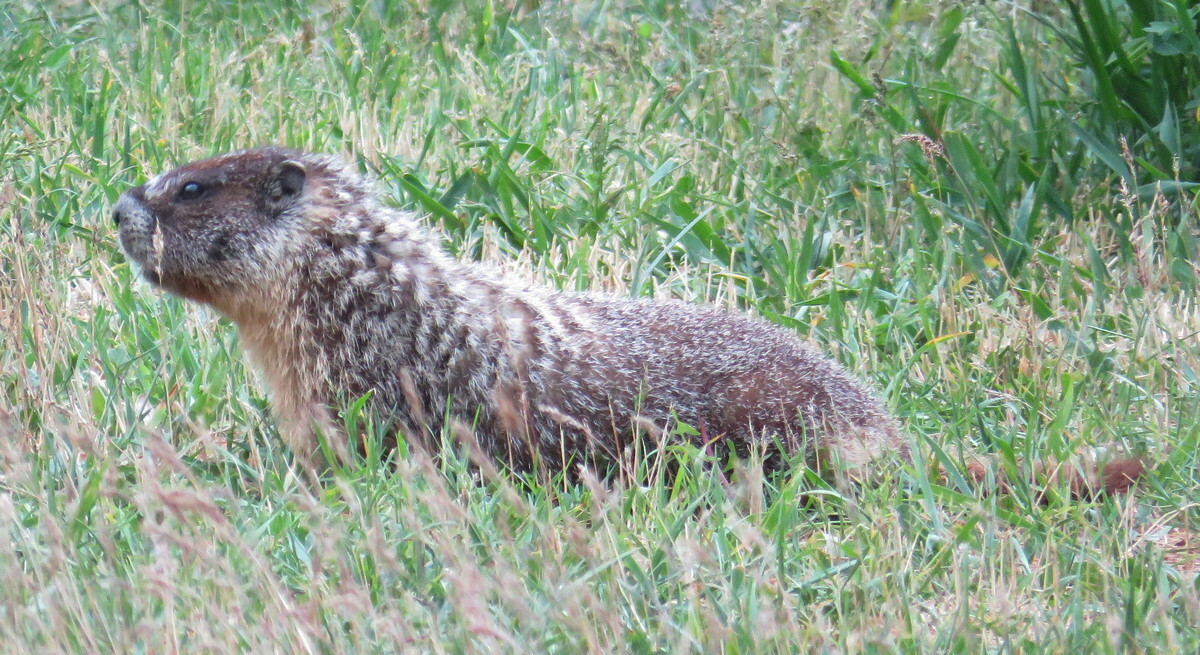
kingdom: Animalia
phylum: Chordata
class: Mammalia
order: Rodentia
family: Sciuridae
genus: Marmota
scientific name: Marmota flaviventris
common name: Yellow-bellied marmot
